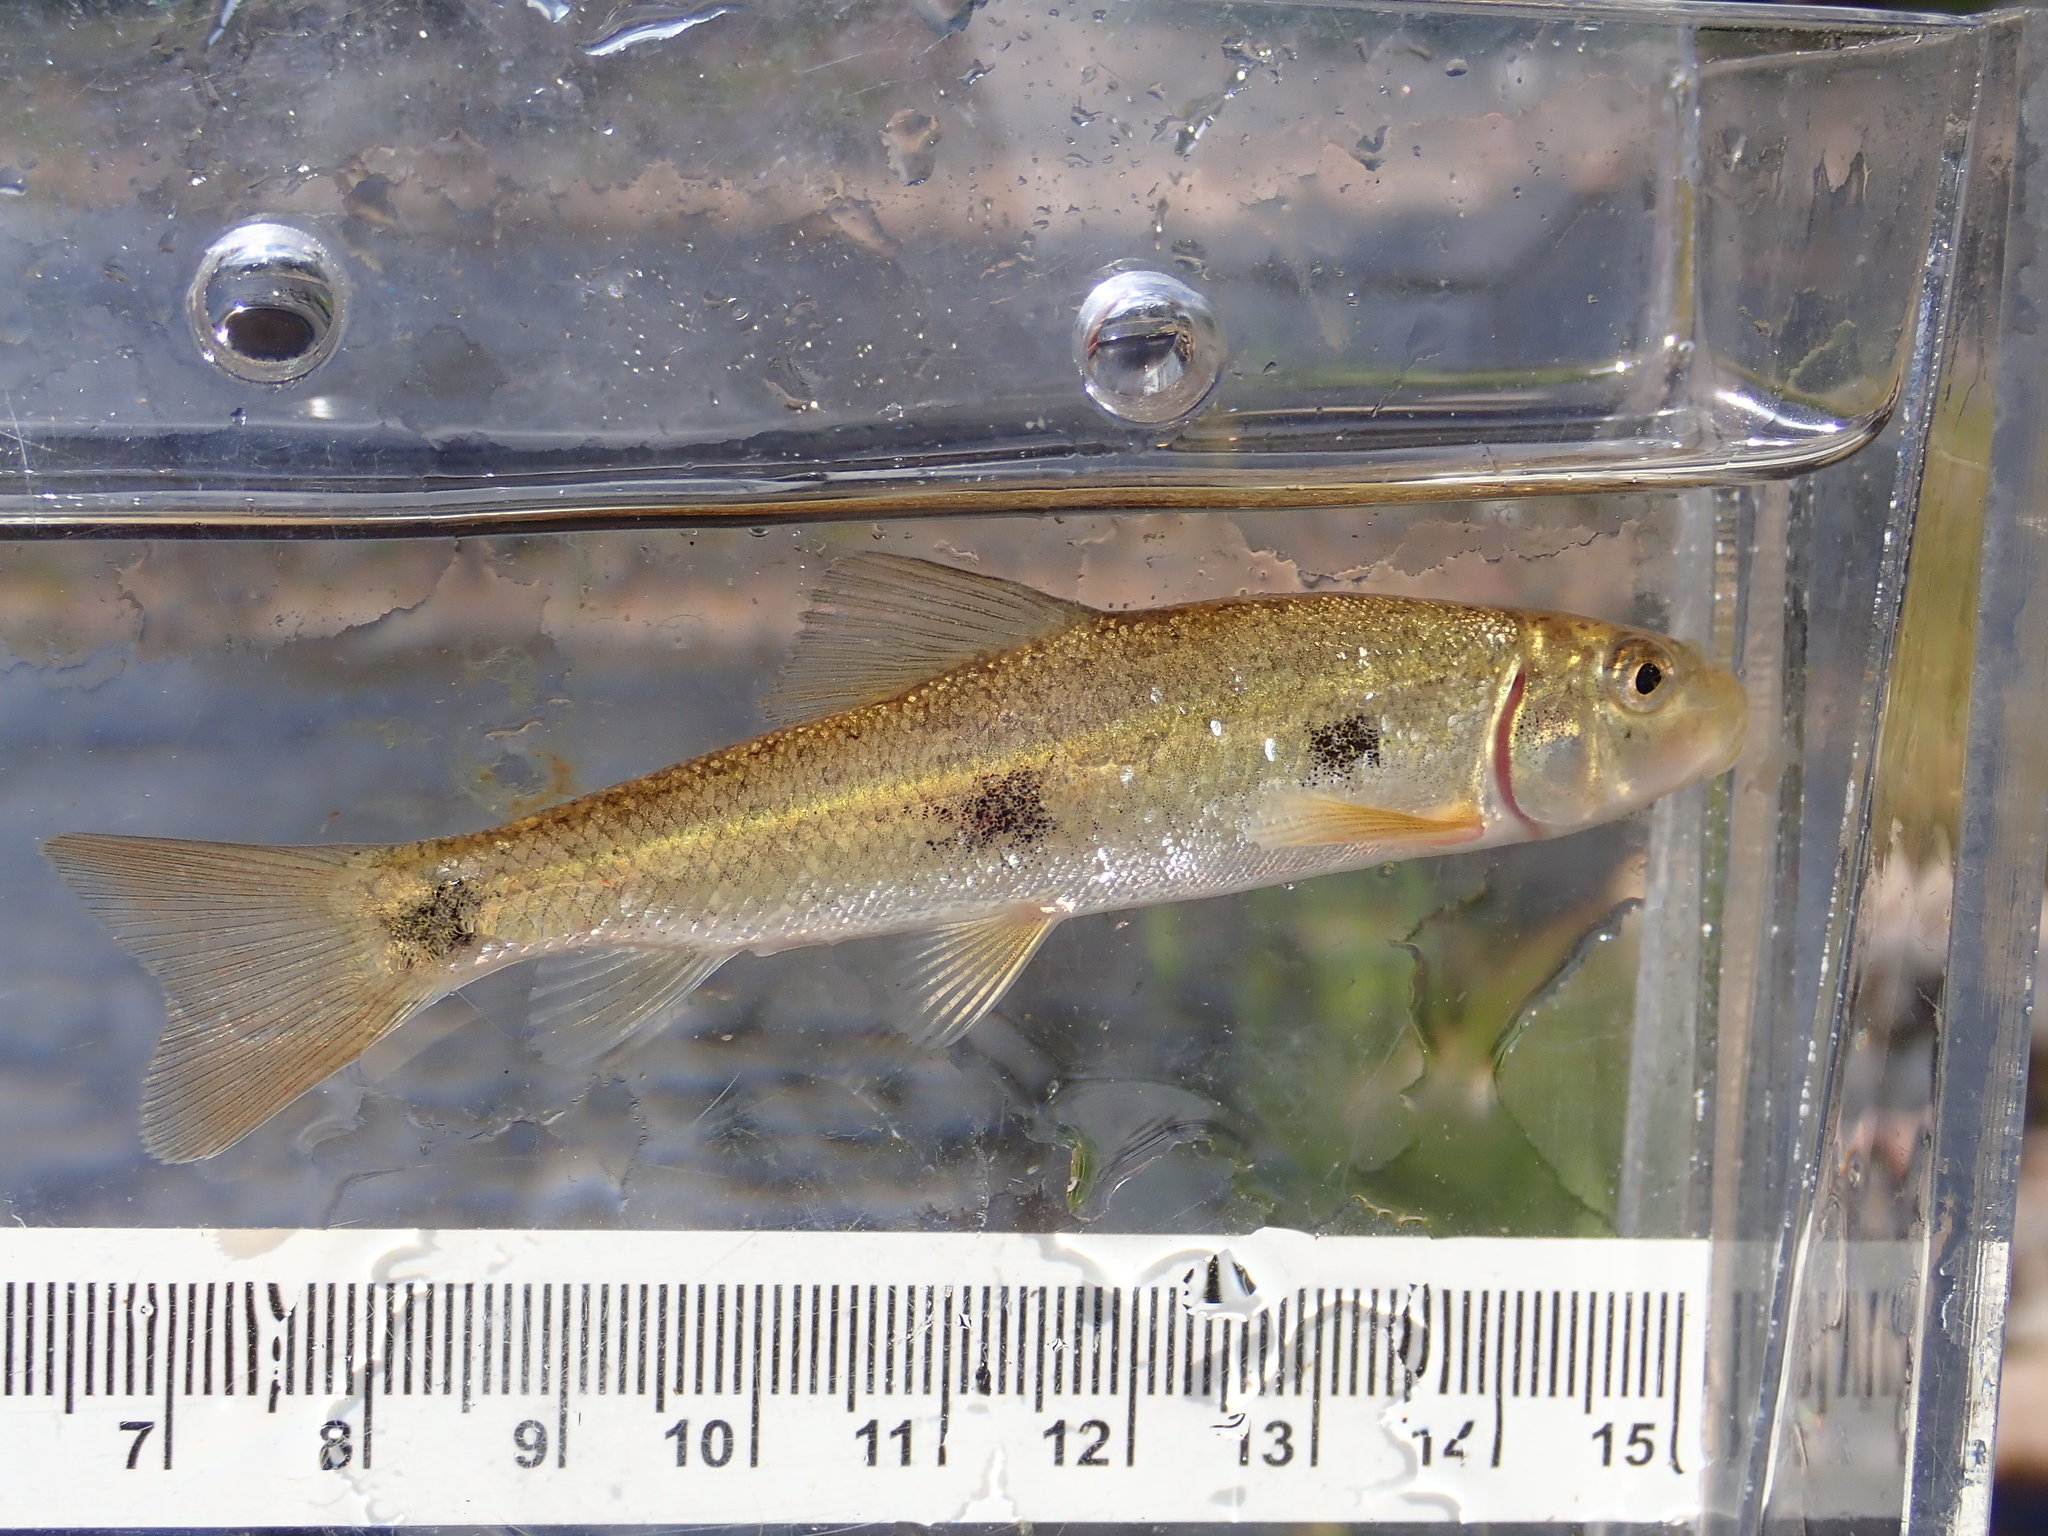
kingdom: Animalia
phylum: Chordata
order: Cypriniformes
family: Catostomidae
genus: Catostomus
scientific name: Catostomus commersonii
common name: White sucker
